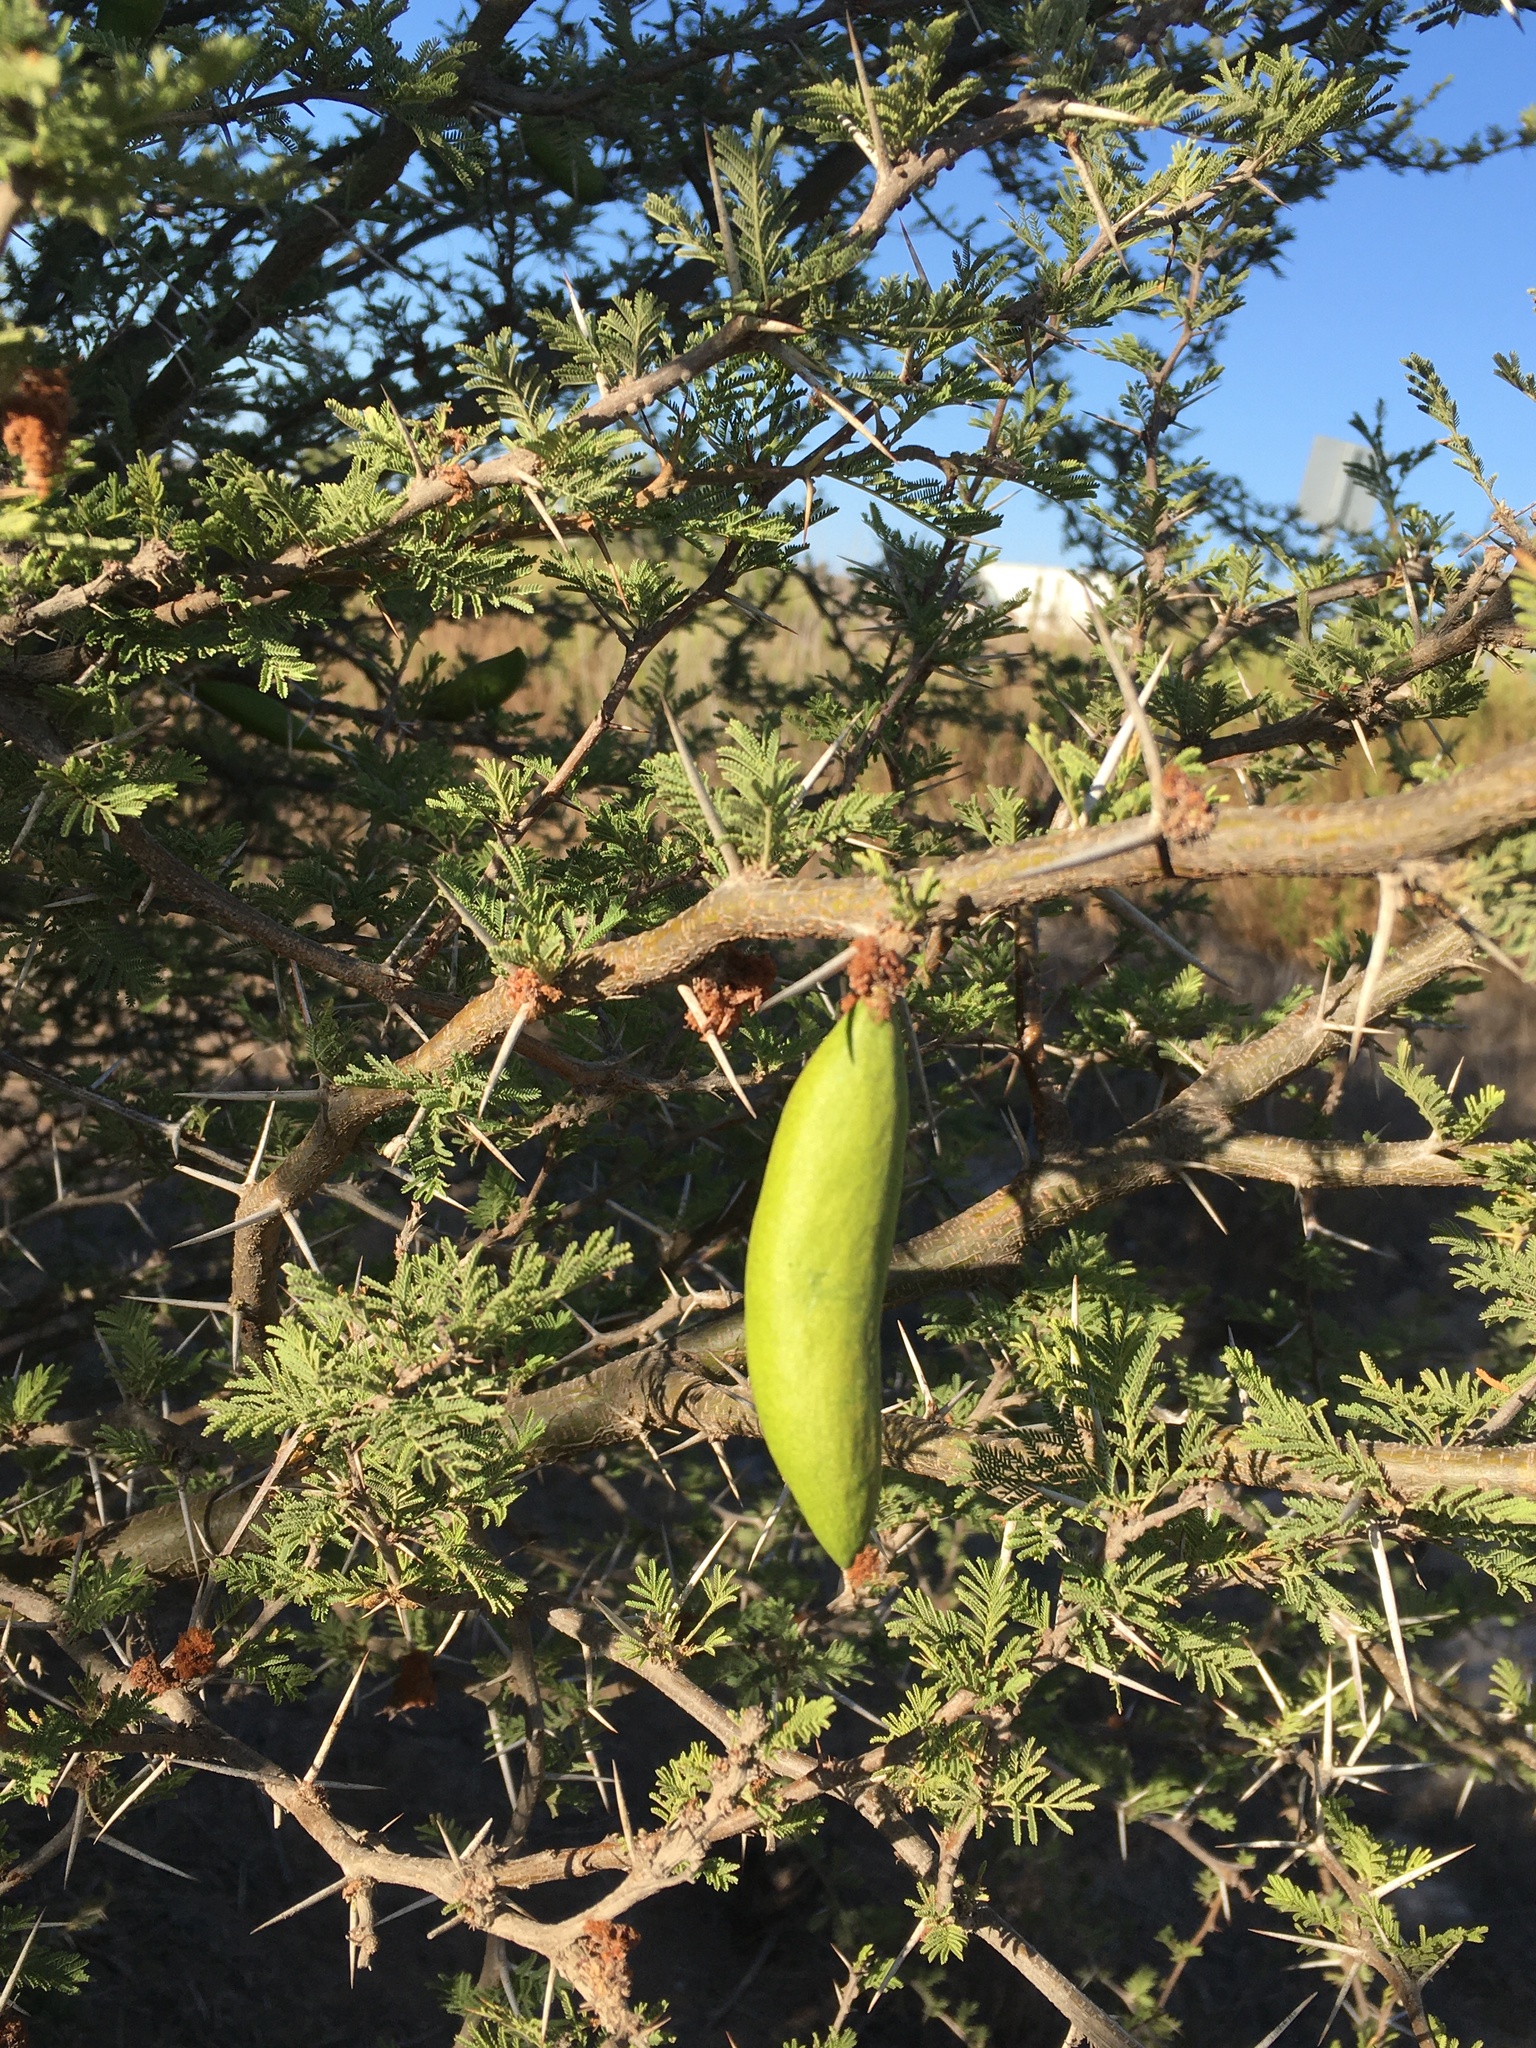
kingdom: Plantae
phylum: Tracheophyta
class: Magnoliopsida
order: Fabales
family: Fabaceae
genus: Vachellia
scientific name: Vachellia caven
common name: Roman cassie
